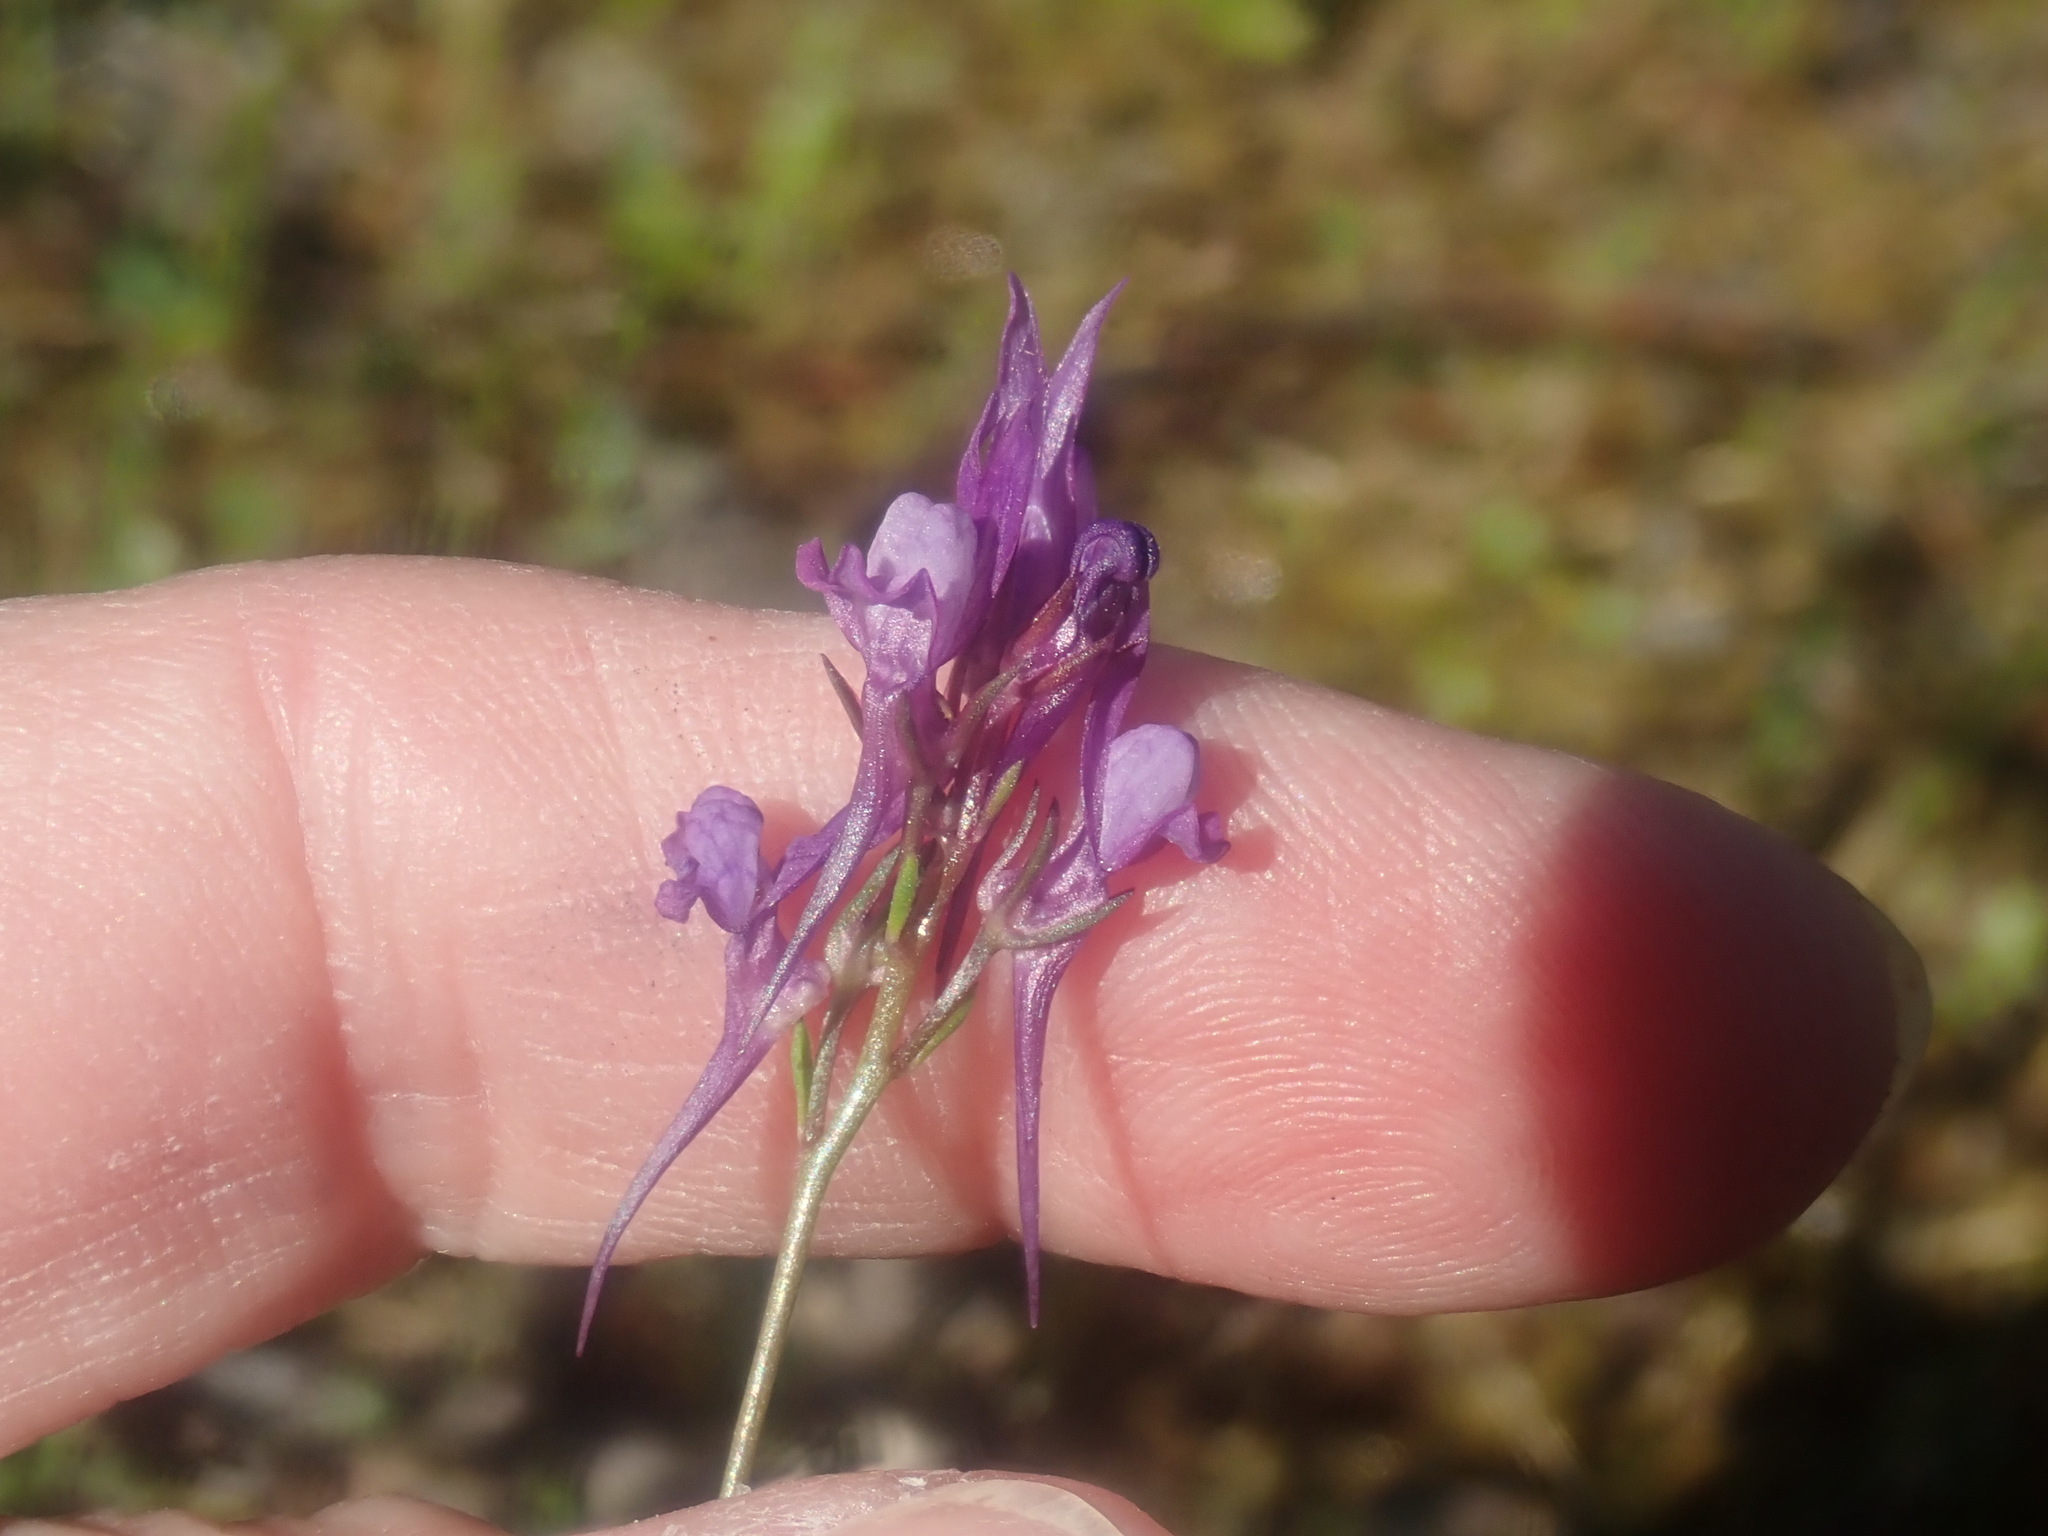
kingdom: Plantae
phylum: Tracheophyta
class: Magnoliopsida
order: Lamiales
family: Plantaginaceae
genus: Linaria
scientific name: Linaria pelisseriana
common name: Jersey toadflax
